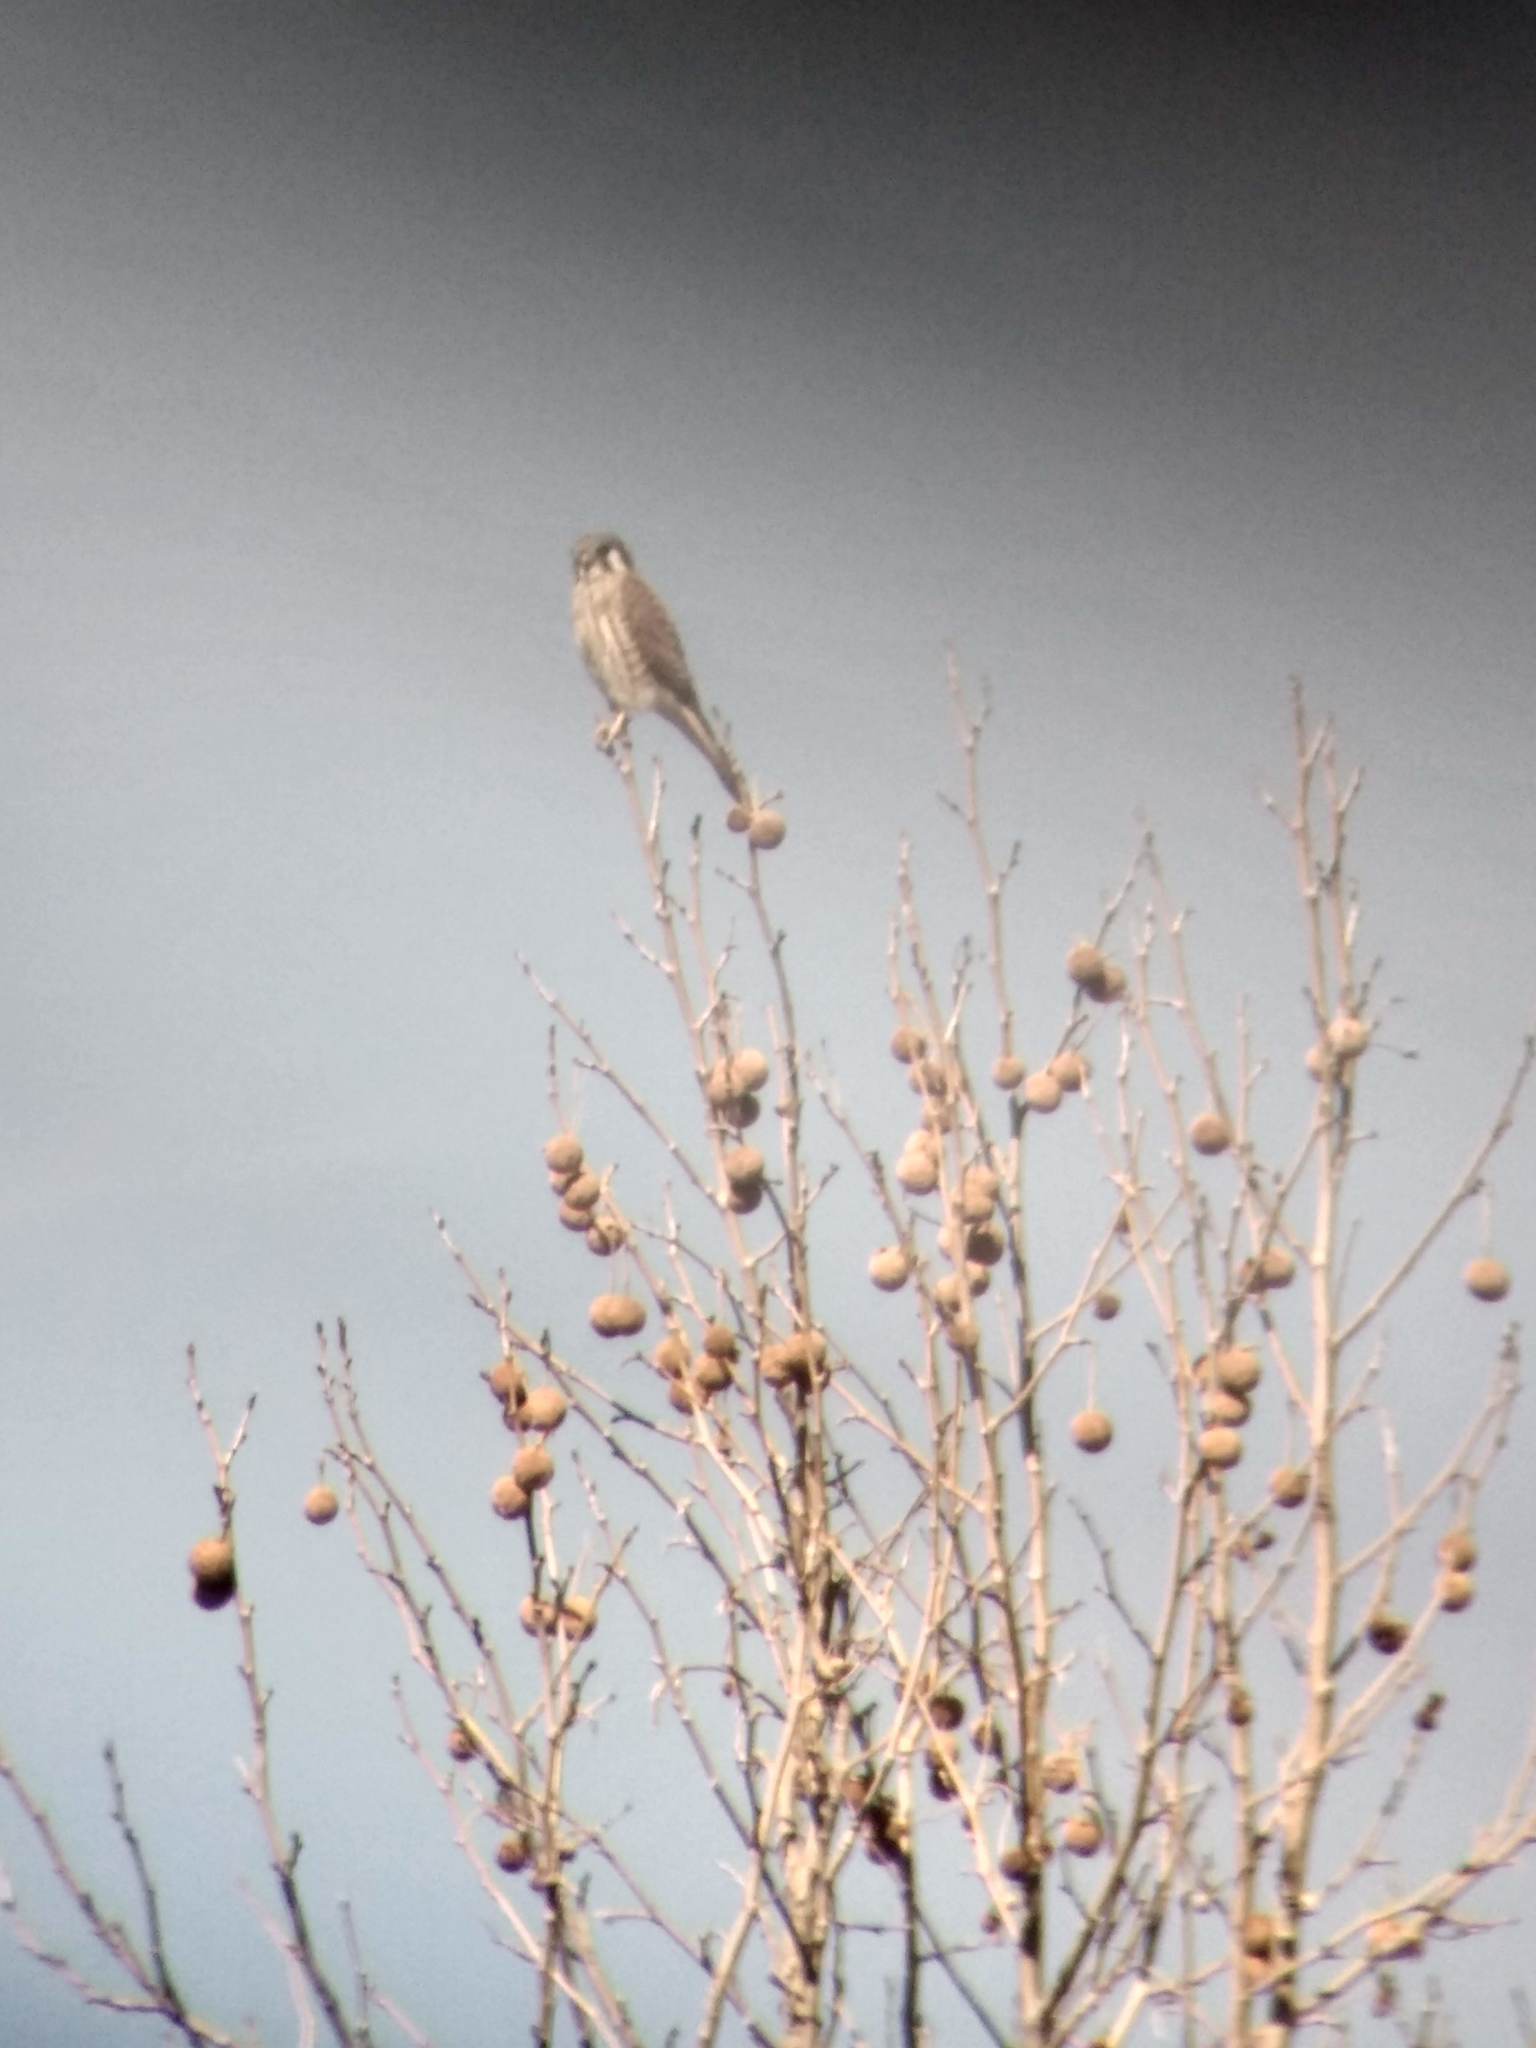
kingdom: Animalia
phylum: Chordata
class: Aves
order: Falconiformes
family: Falconidae
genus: Falco
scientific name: Falco sparverius
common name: American kestrel
